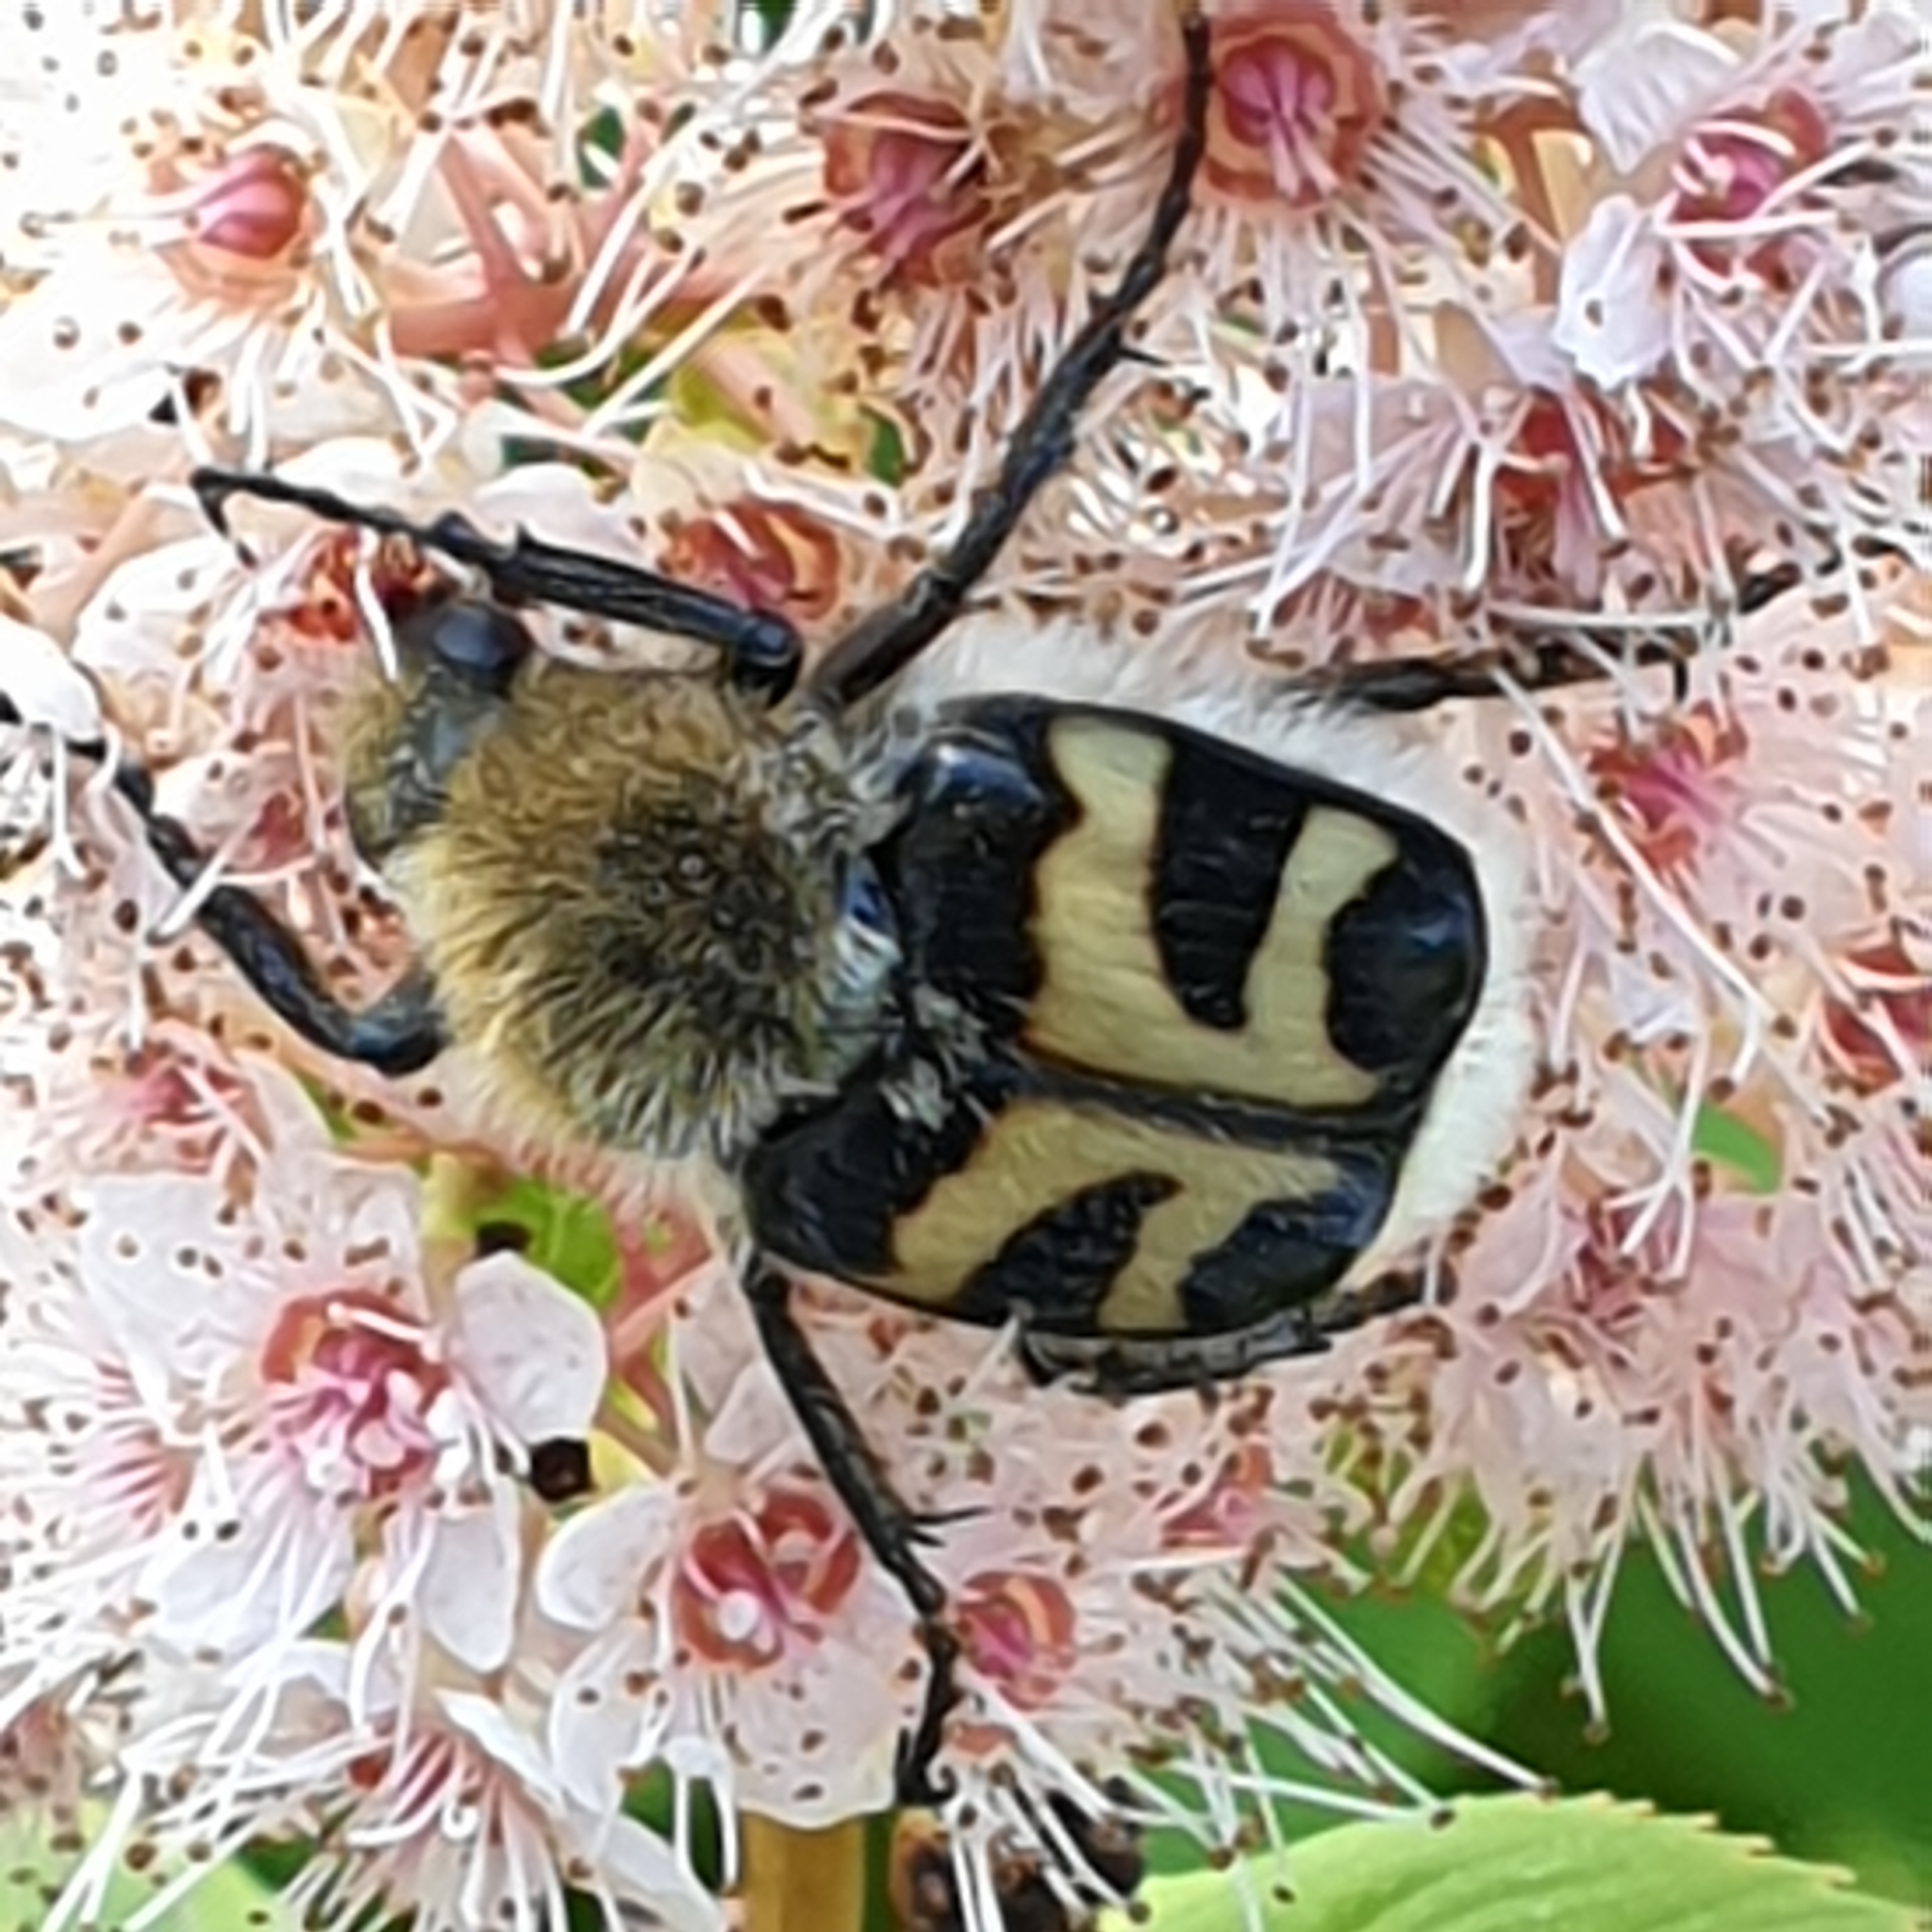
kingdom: Animalia
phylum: Arthropoda
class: Insecta
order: Coleoptera
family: Scarabaeidae
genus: Trichius
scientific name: Trichius fasciatus
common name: Bee beetle
